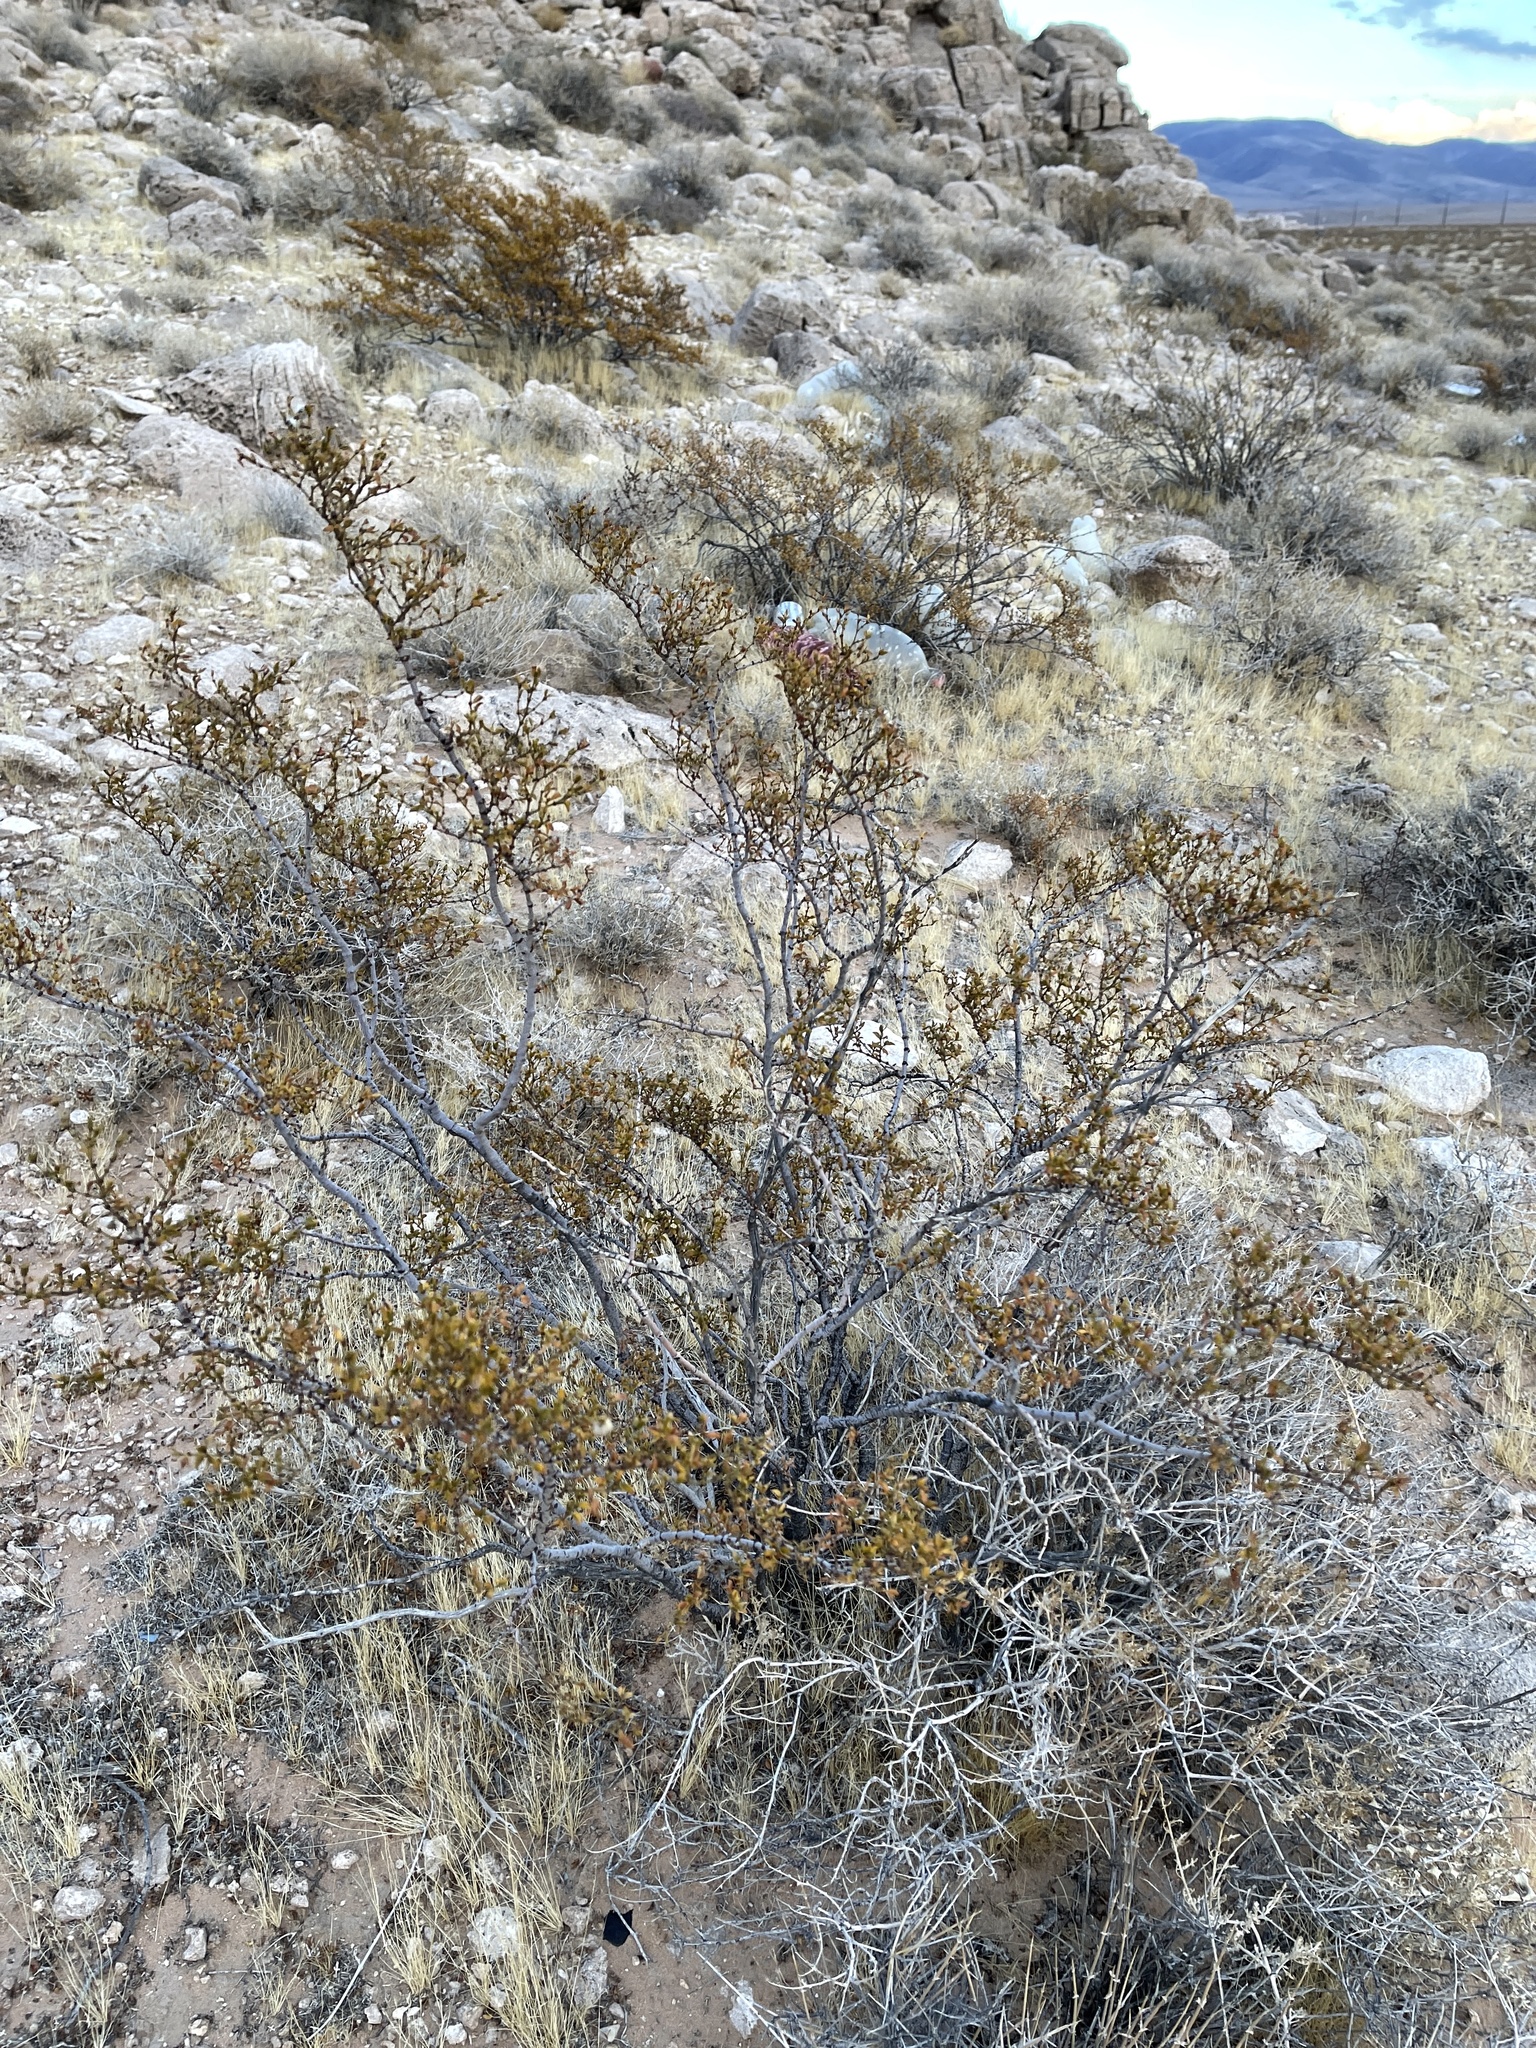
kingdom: Plantae
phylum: Tracheophyta
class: Magnoliopsida
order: Zygophyllales
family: Zygophyllaceae
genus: Larrea
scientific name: Larrea tridentata
